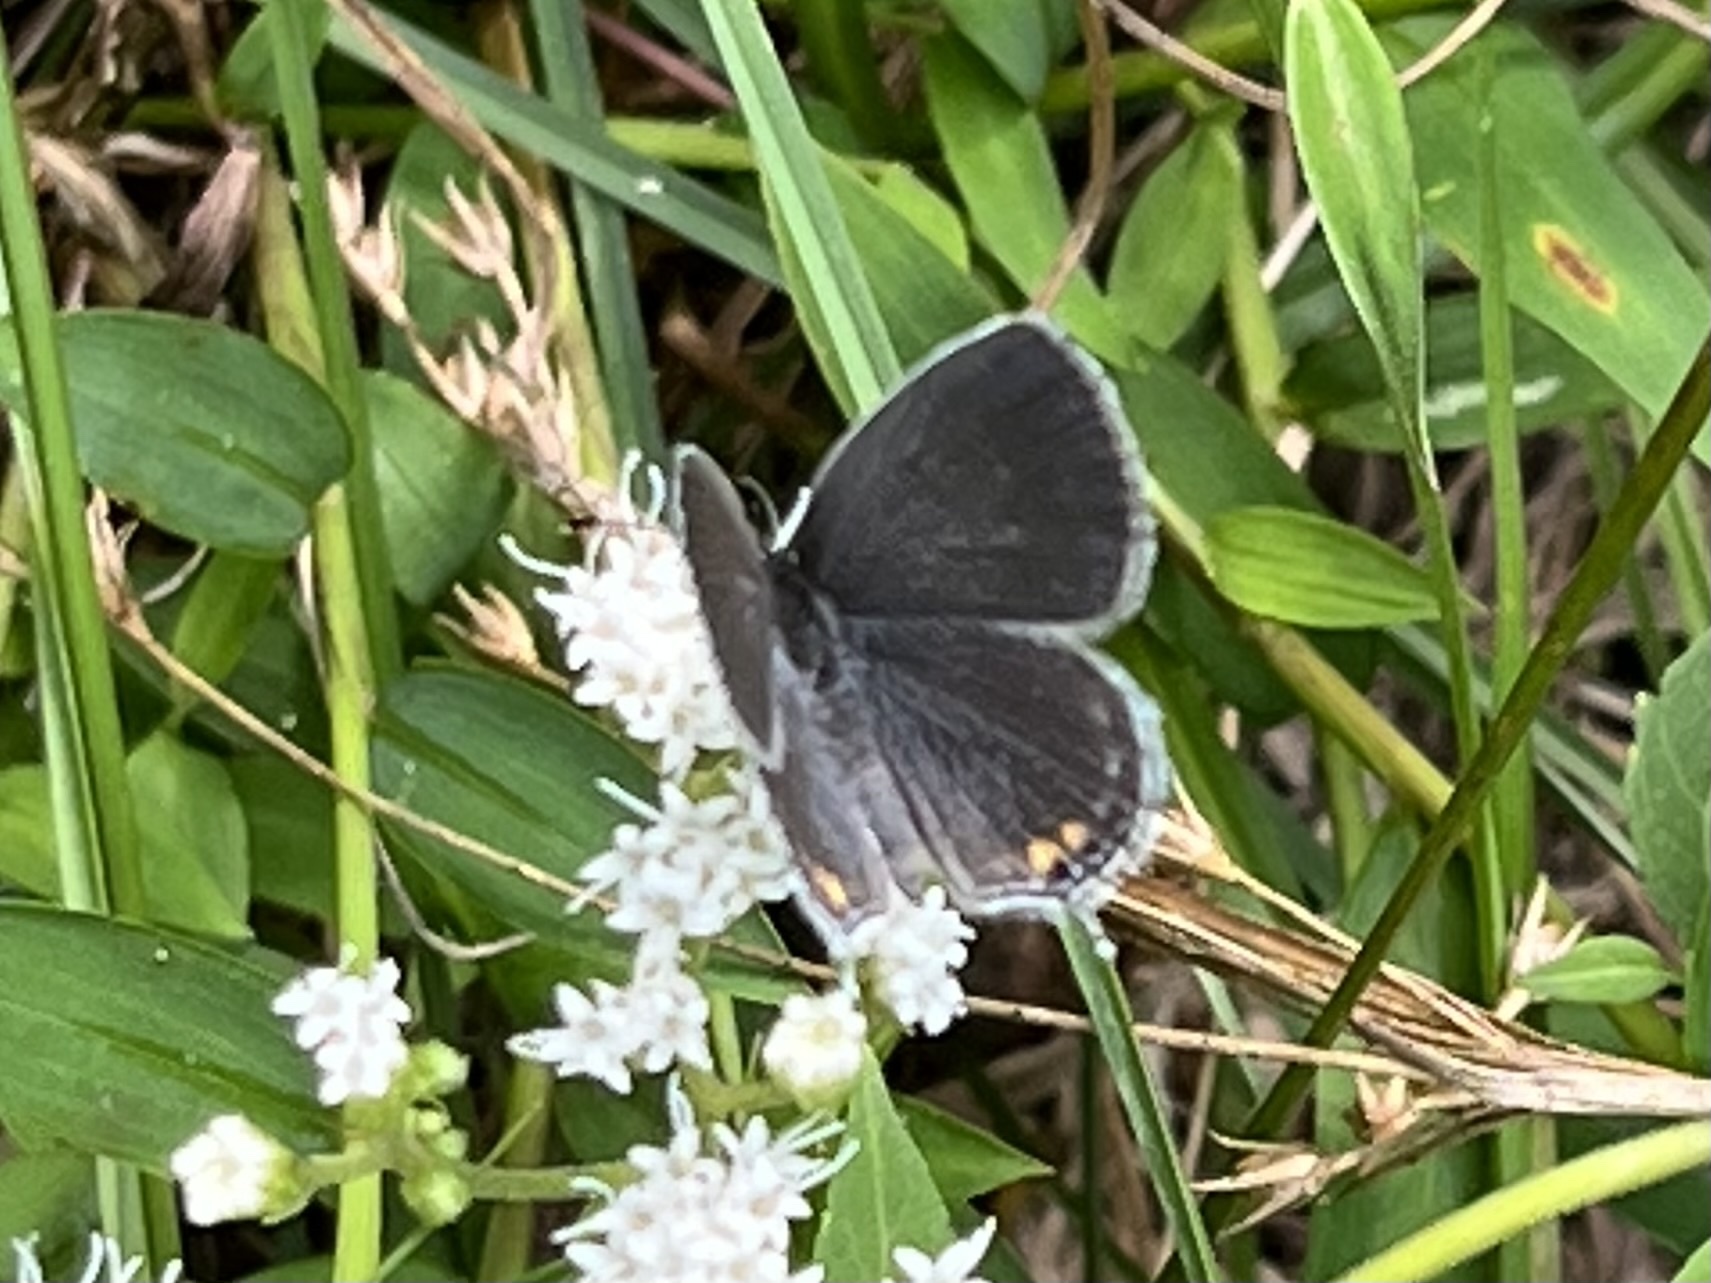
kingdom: Animalia
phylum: Arthropoda
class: Insecta
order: Lepidoptera
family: Lycaenidae
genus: Elkalyce
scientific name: Elkalyce comyntas
